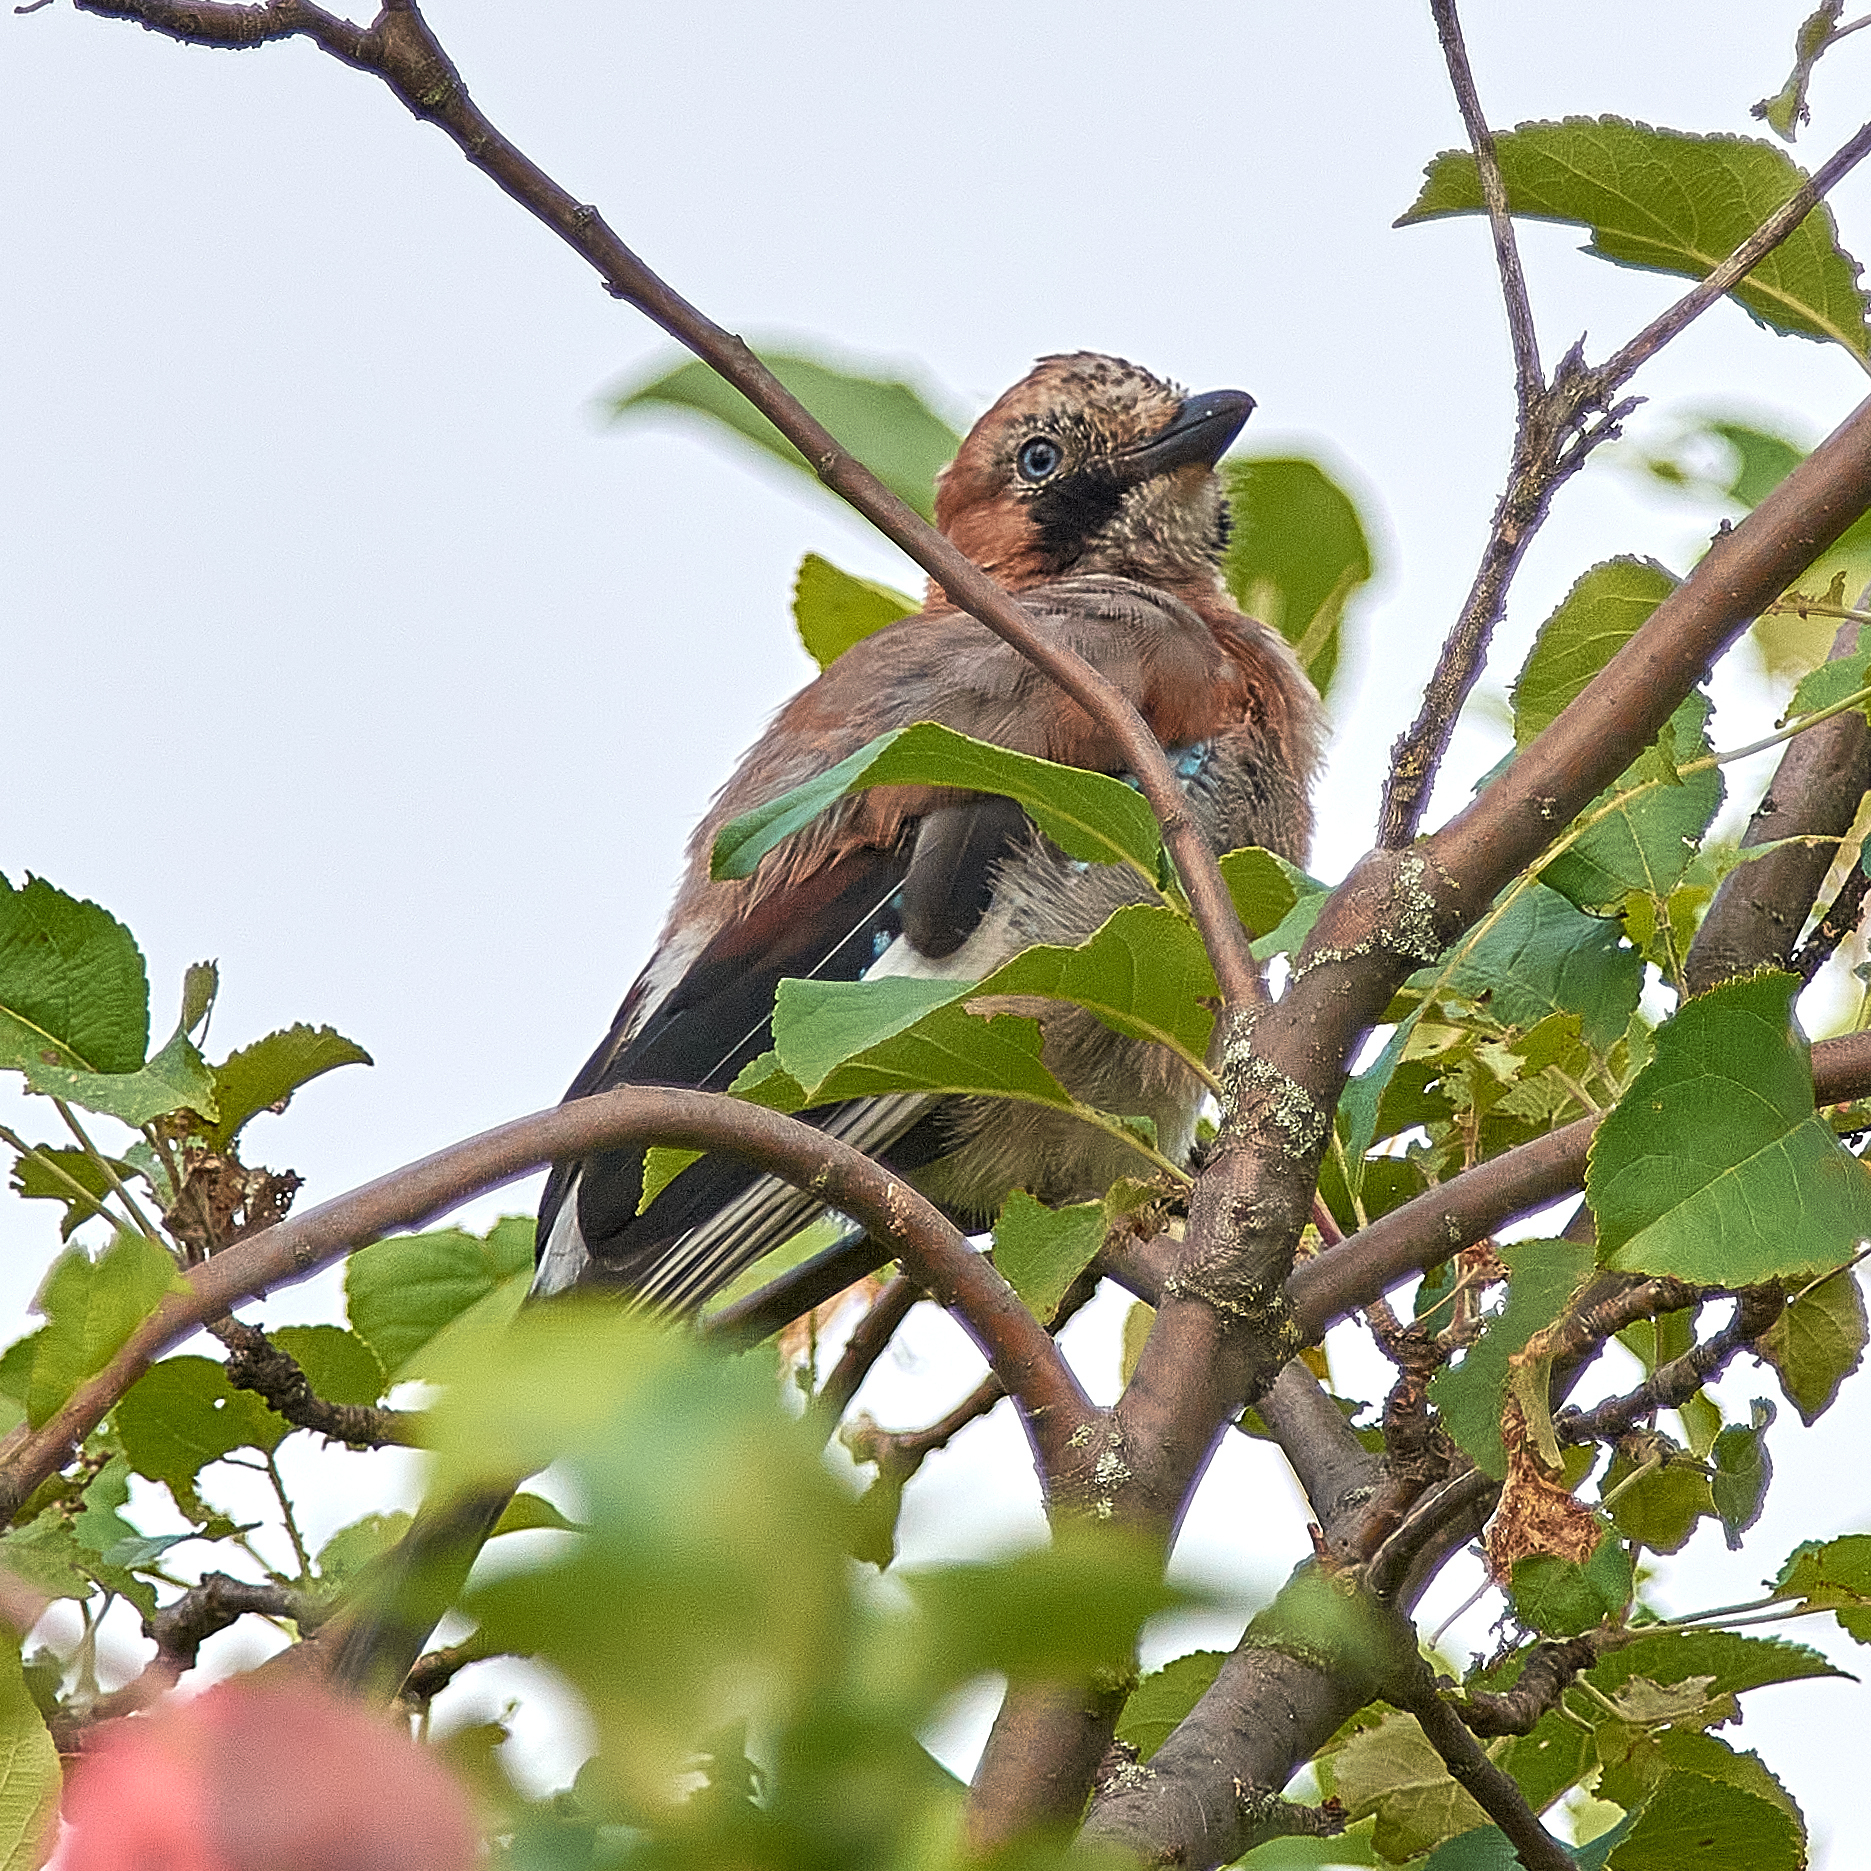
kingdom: Animalia
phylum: Chordata
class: Aves
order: Passeriformes
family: Corvidae
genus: Garrulus
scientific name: Garrulus glandarius
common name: Eurasian jay
